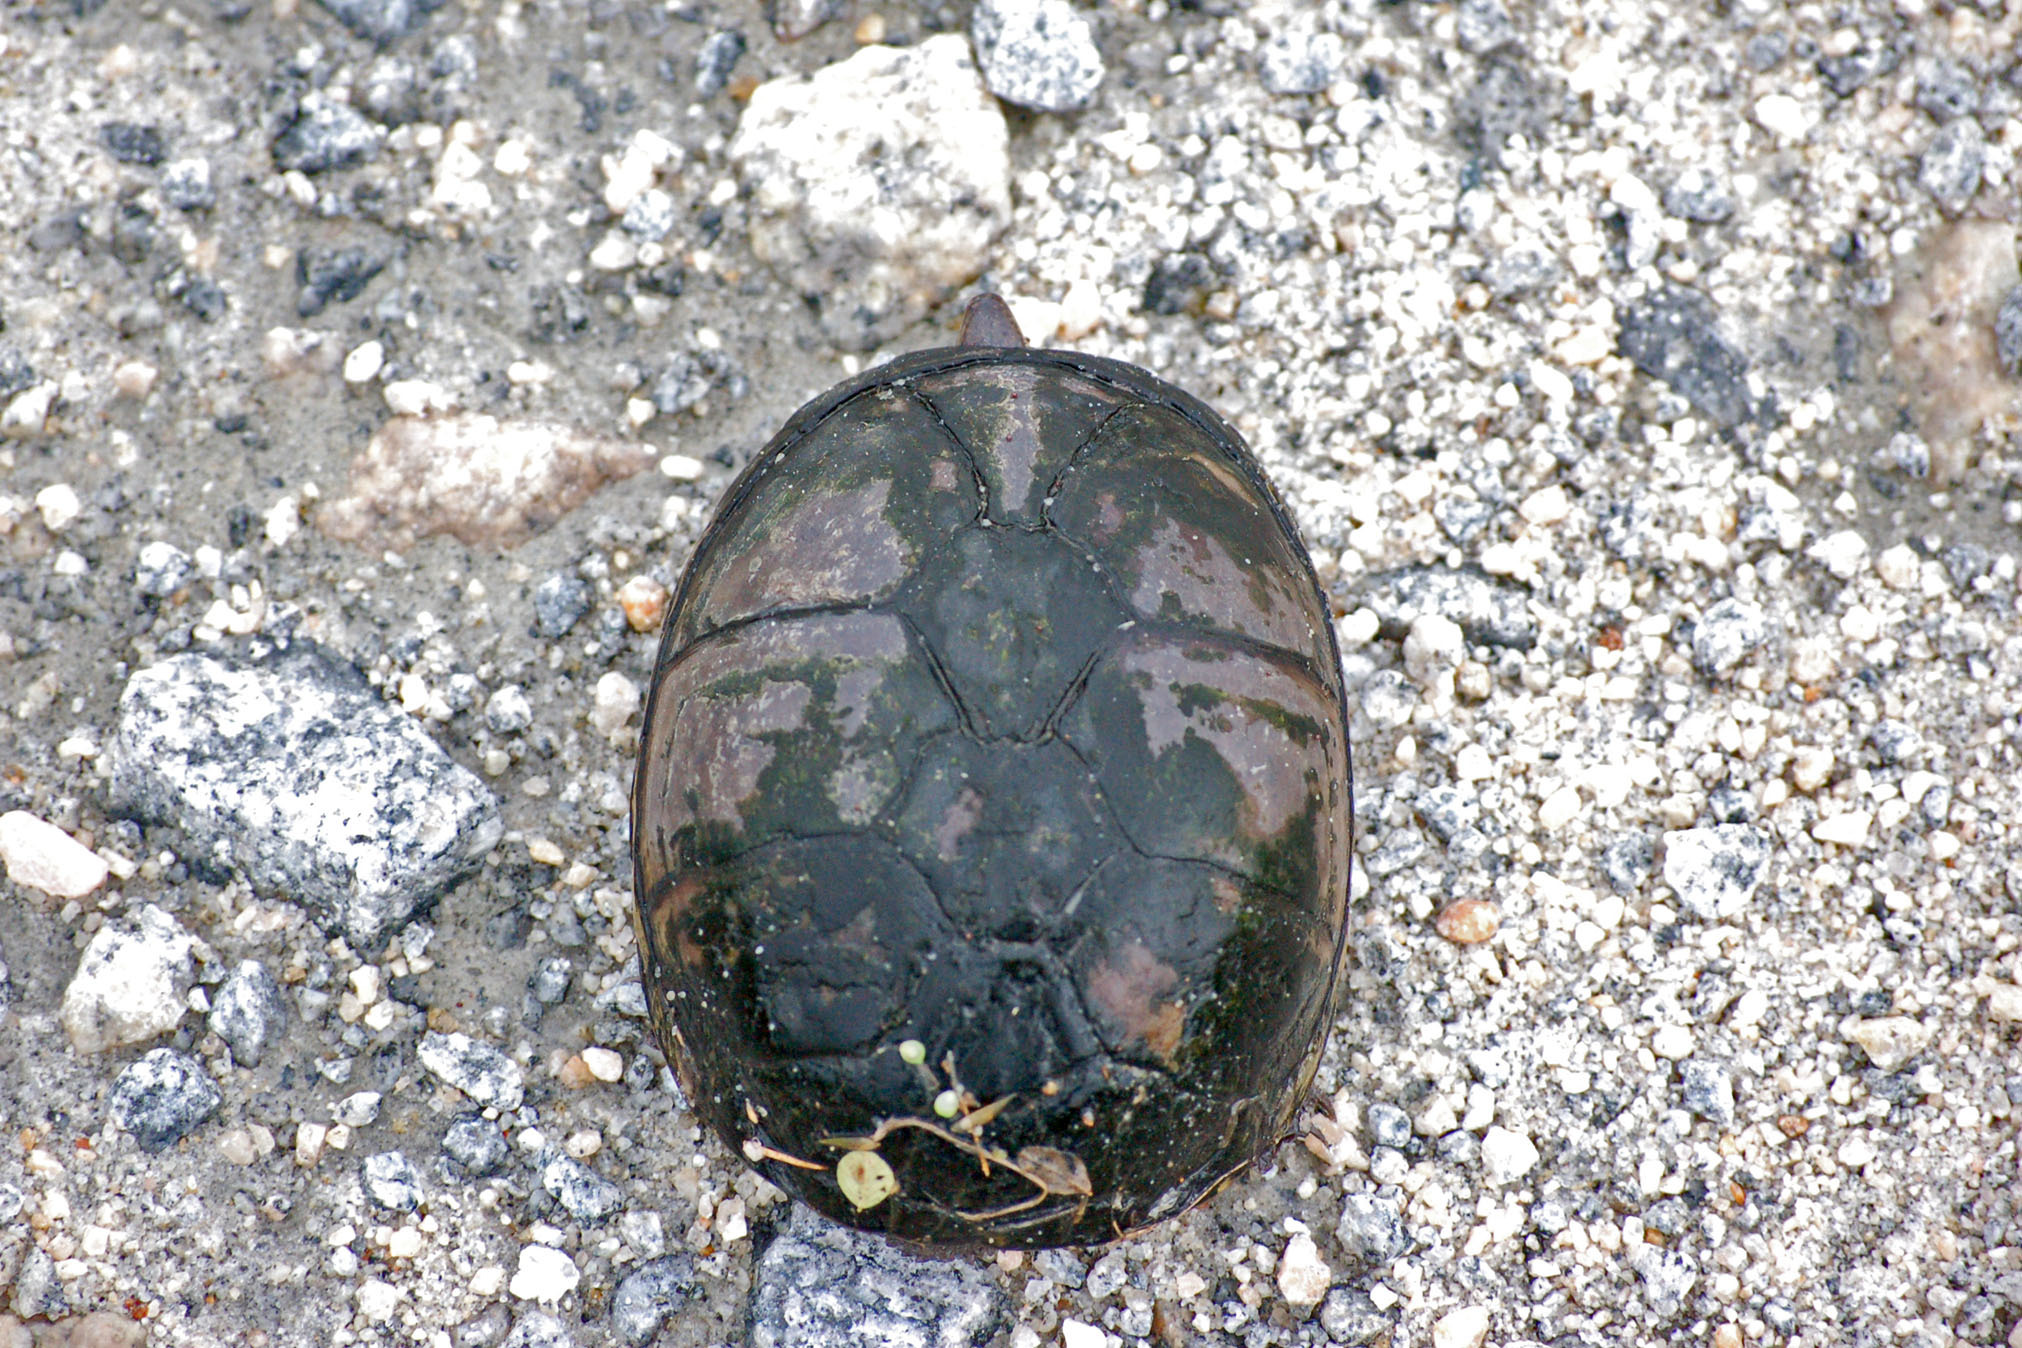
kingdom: Animalia
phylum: Chordata
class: Testudines
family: Kinosternidae
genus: Kinosternon
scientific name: Kinosternon subrubrum
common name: Eastern mud turtle
